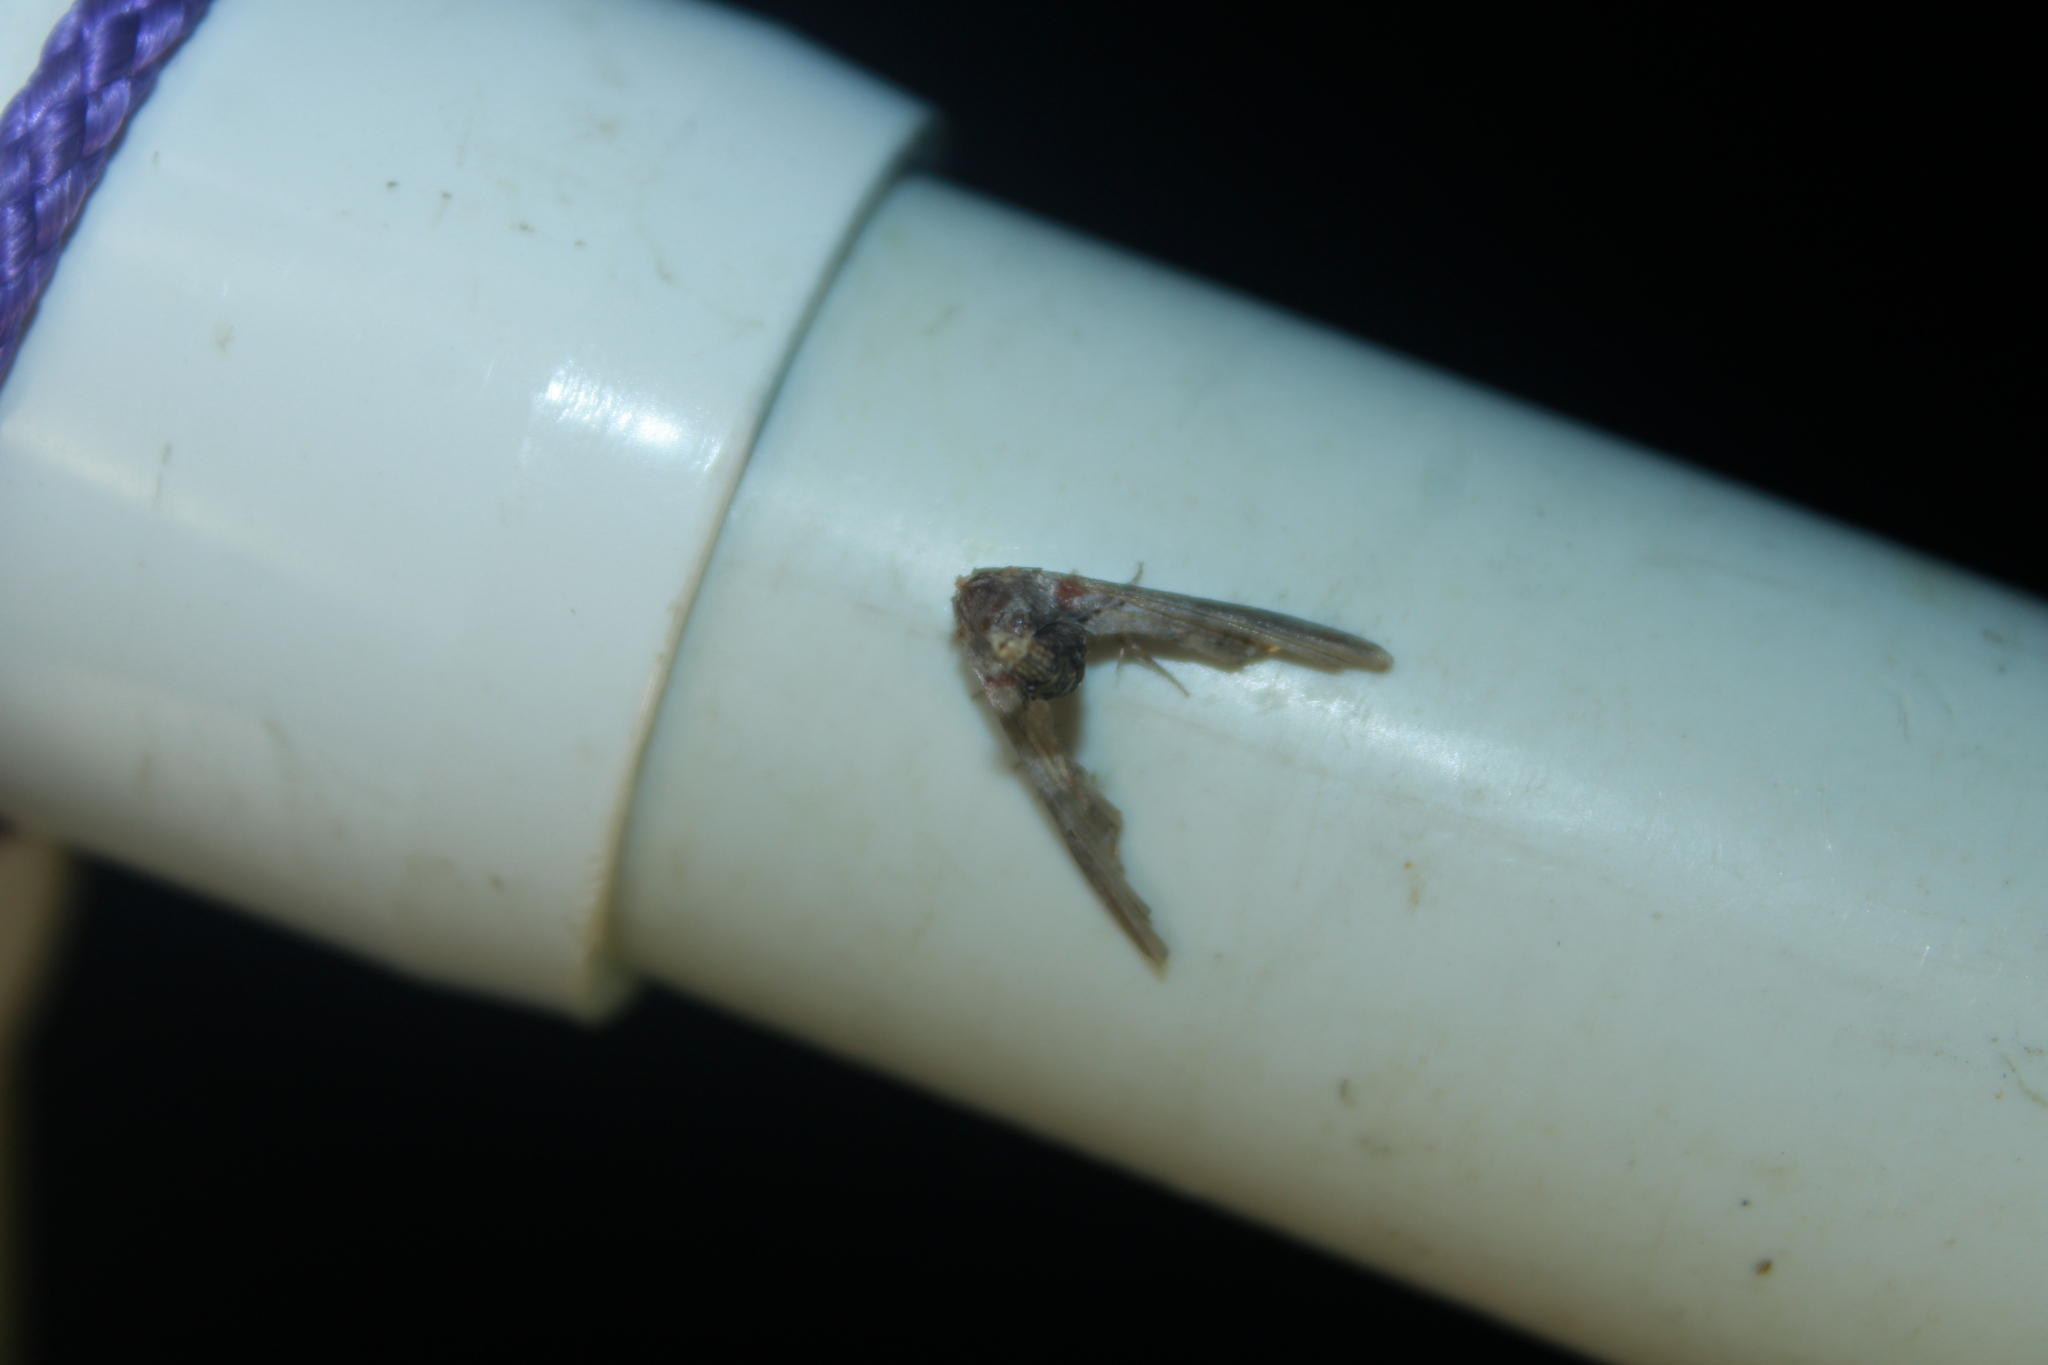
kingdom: Animalia
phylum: Arthropoda
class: Insecta
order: Lepidoptera
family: Euteliidae
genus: Marathyssa
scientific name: Marathyssa inficita
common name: Dark marathyssa moth
